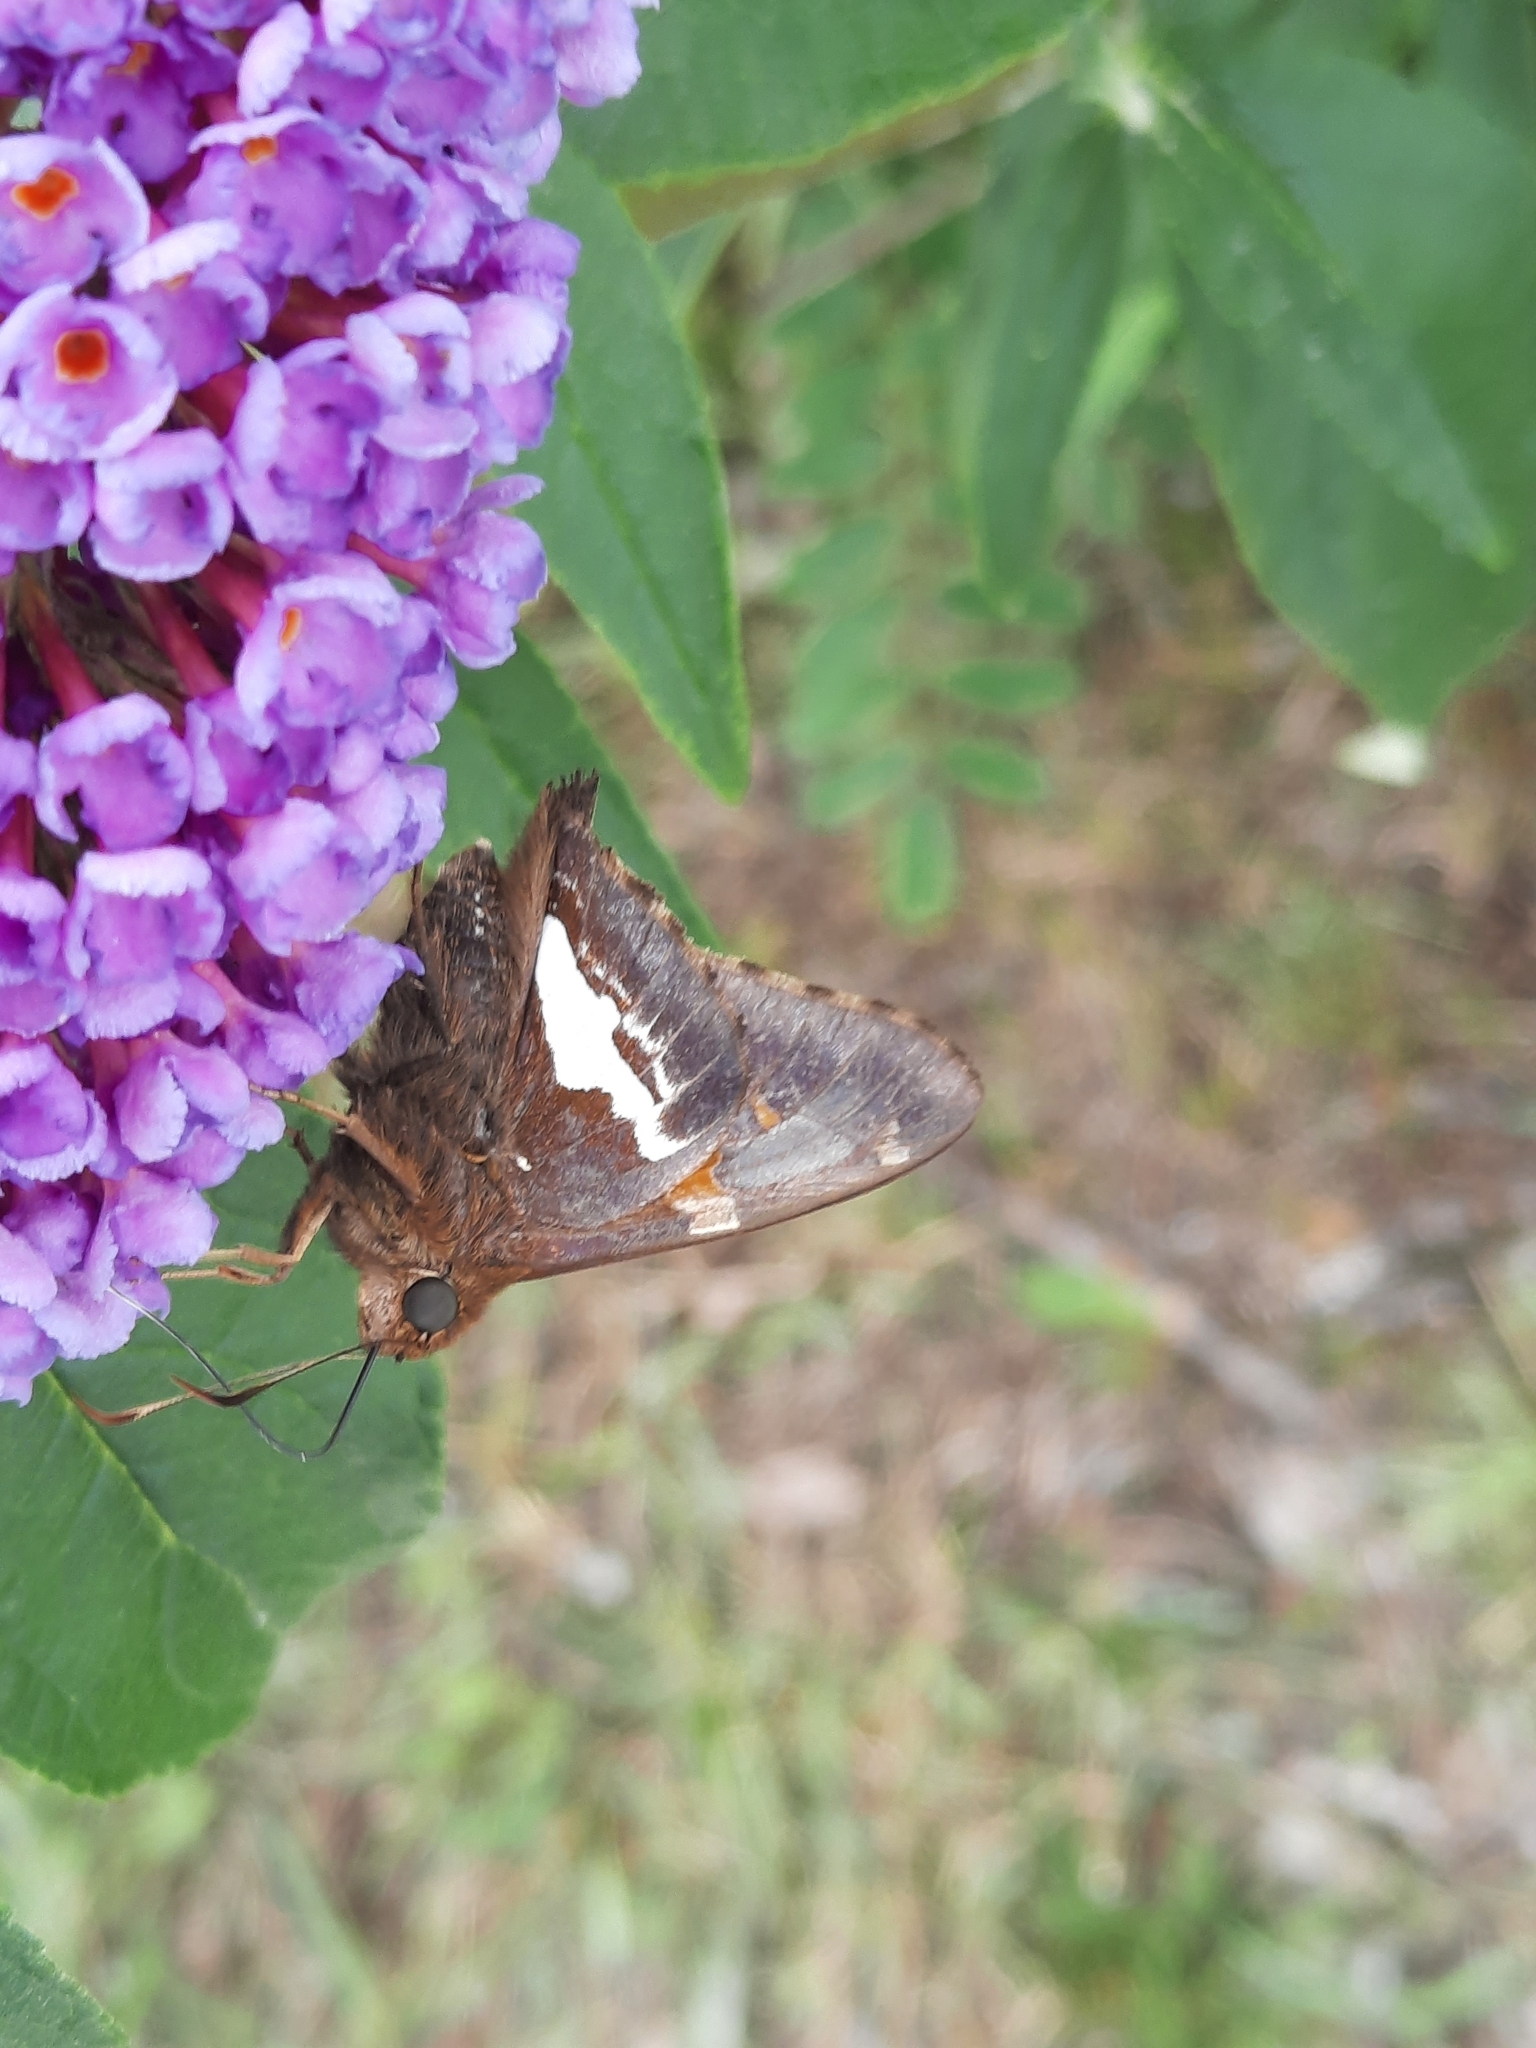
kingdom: Animalia
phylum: Arthropoda
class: Insecta
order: Lepidoptera
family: Hesperiidae
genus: Epargyreus
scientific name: Epargyreus clarus
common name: Silver-spotted skipper
